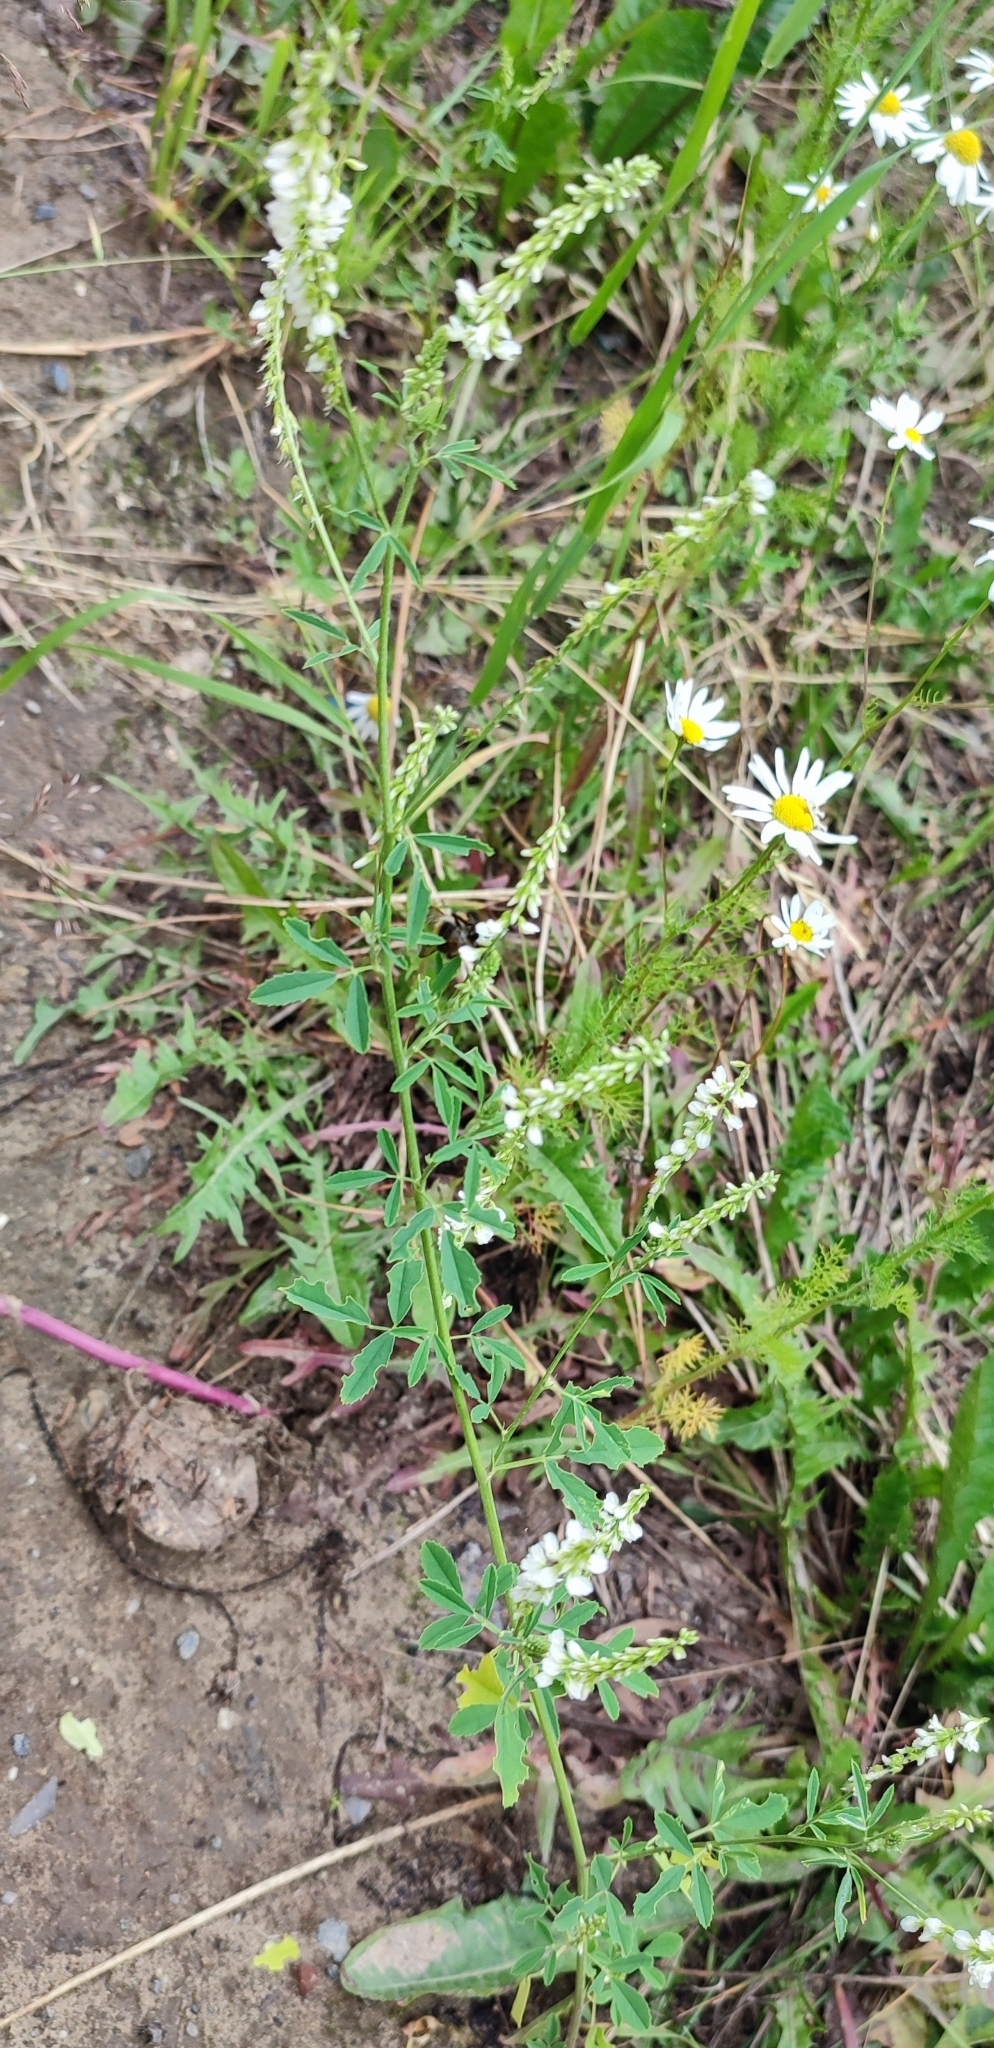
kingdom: Plantae
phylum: Tracheophyta
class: Magnoliopsida
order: Fabales
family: Fabaceae
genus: Melilotus
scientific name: Melilotus albus
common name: White melilot
